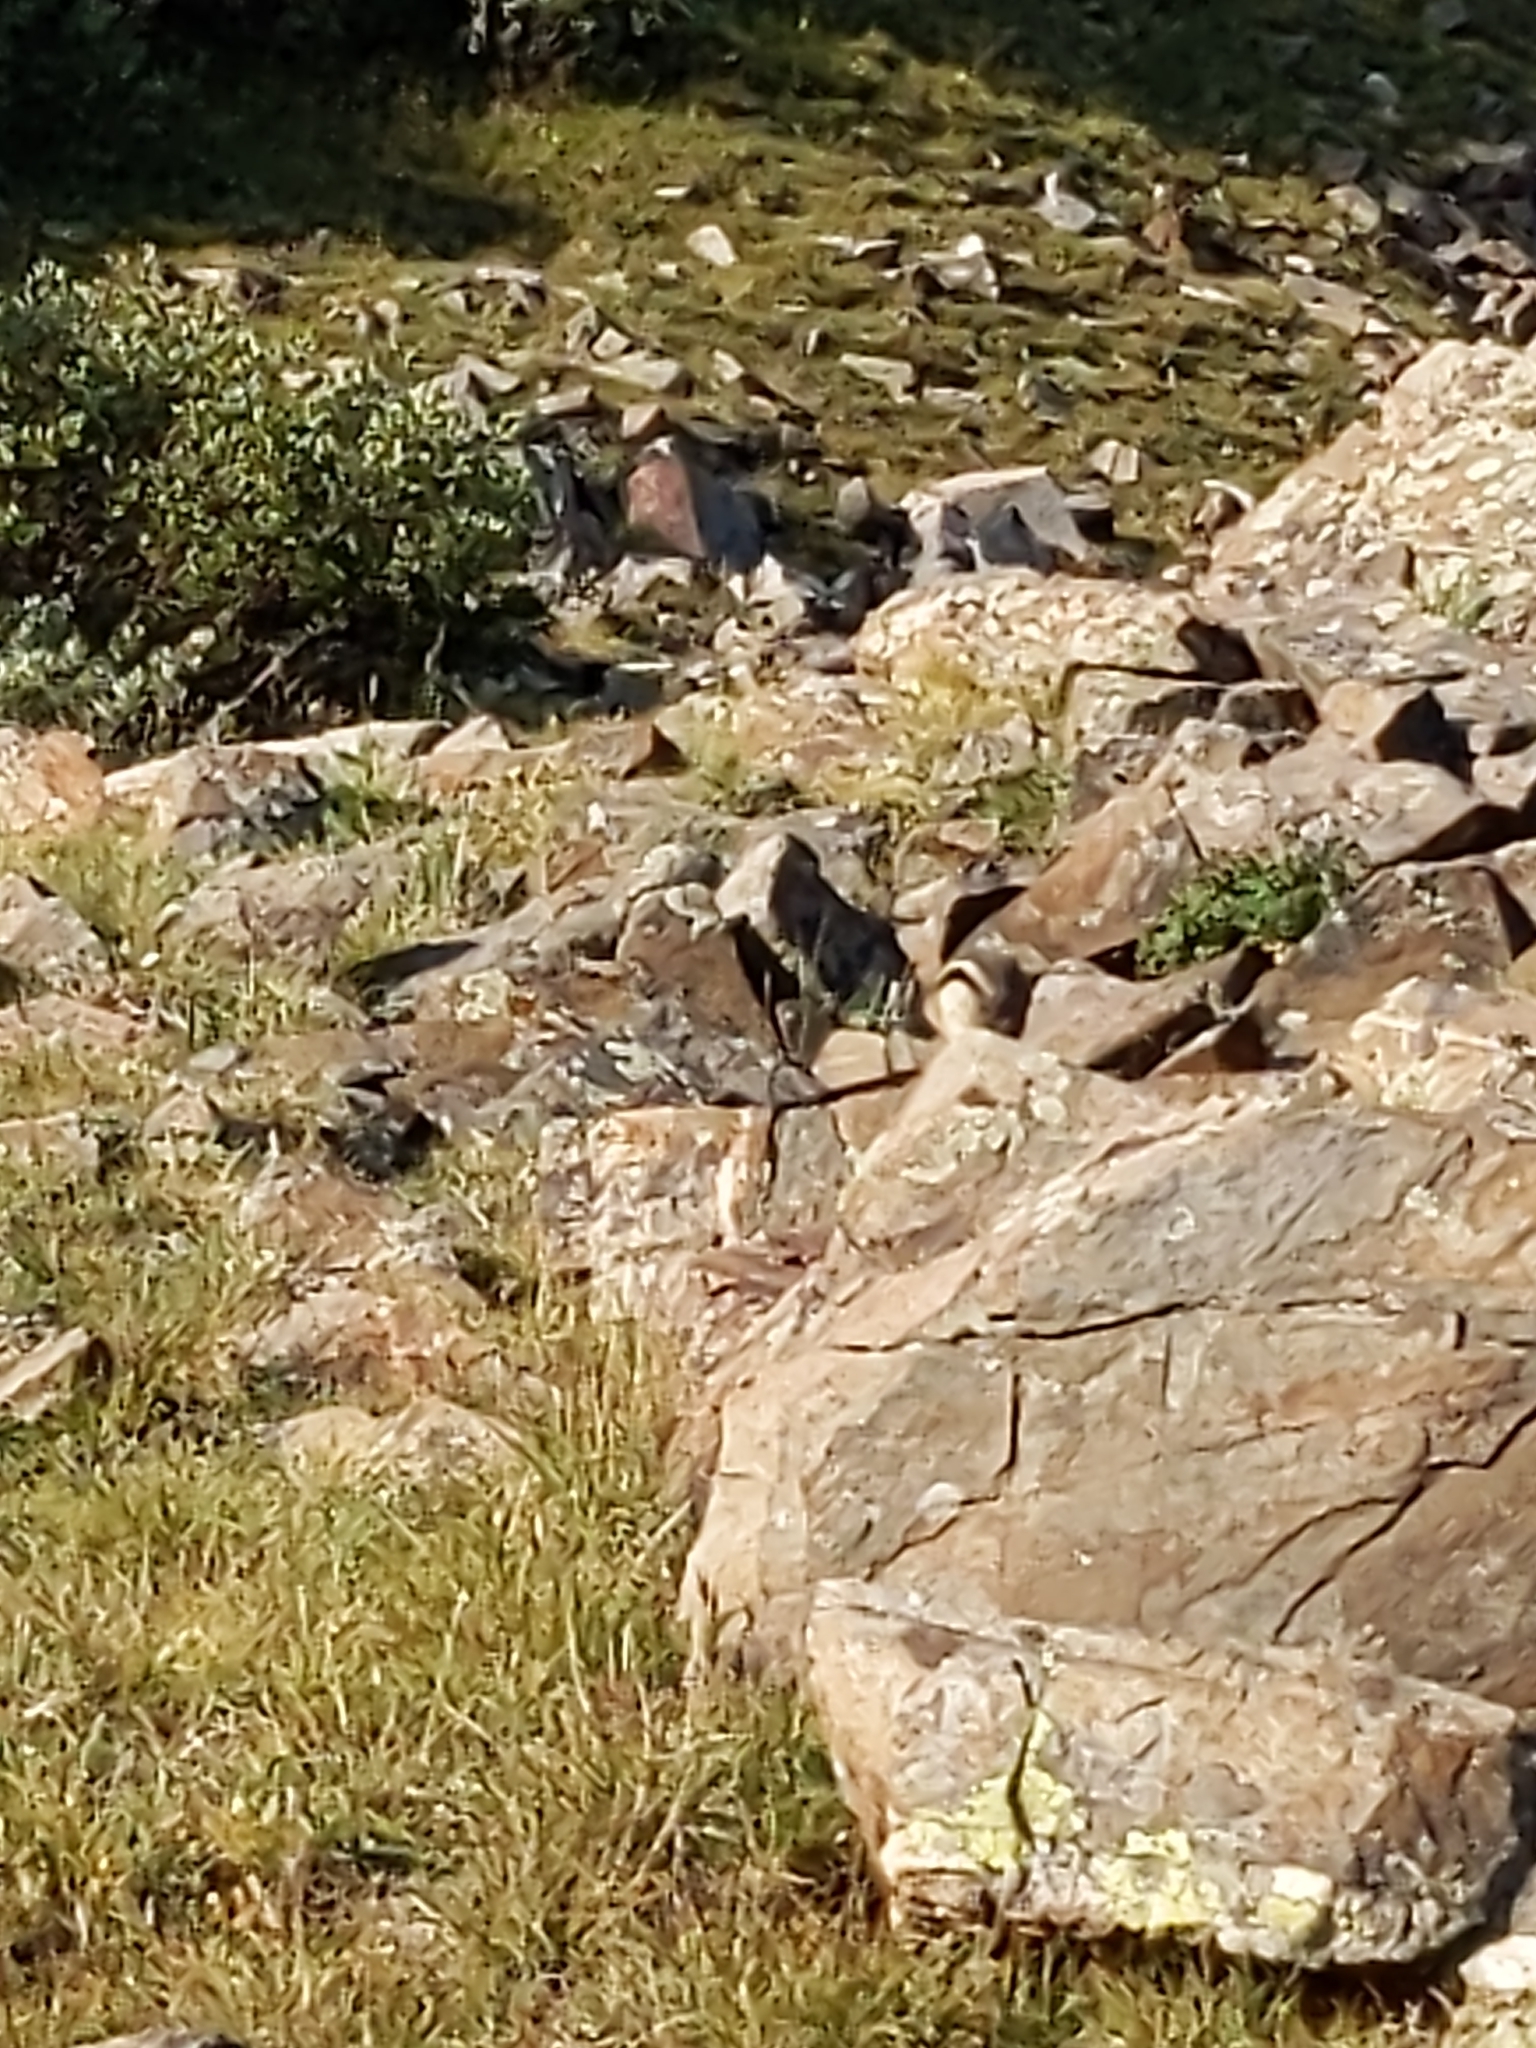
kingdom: Animalia
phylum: Chordata
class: Mammalia
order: Rodentia
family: Sciuridae
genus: Callospermophilus
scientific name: Callospermophilus lateralis
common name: Golden-mantled ground squirrel
